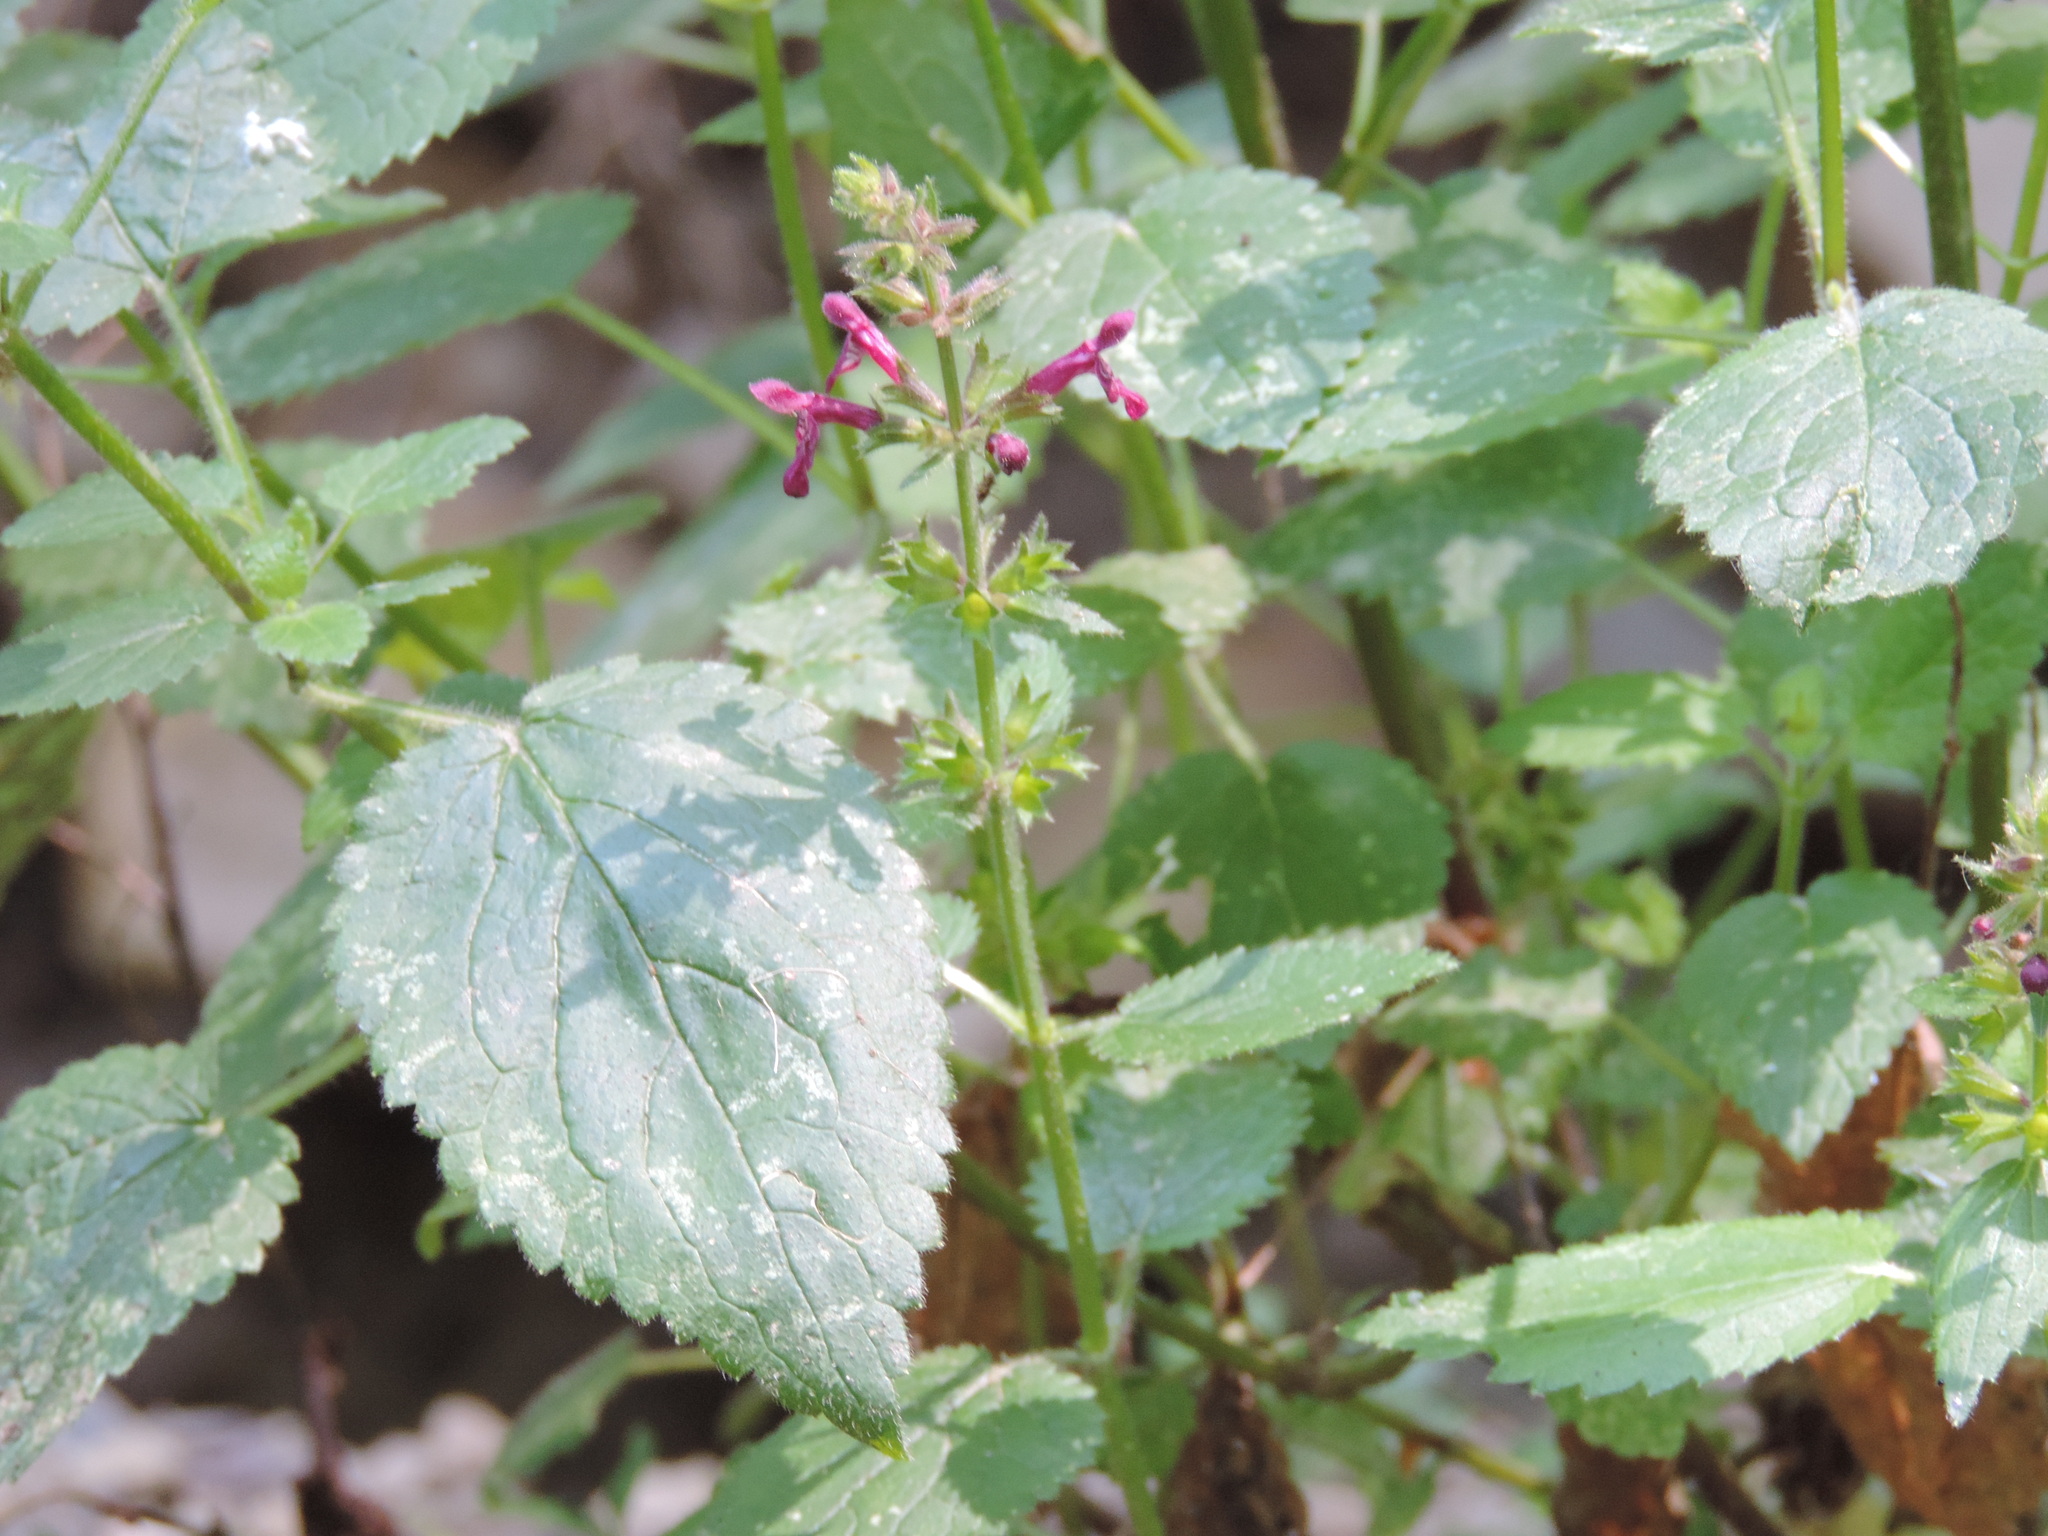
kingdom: Plantae
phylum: Tracheophyta
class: Magnoliopsida
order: Lamiales
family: Lamiaceae
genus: Stachys
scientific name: Stachys sylvatica
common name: Hedge woundwort
